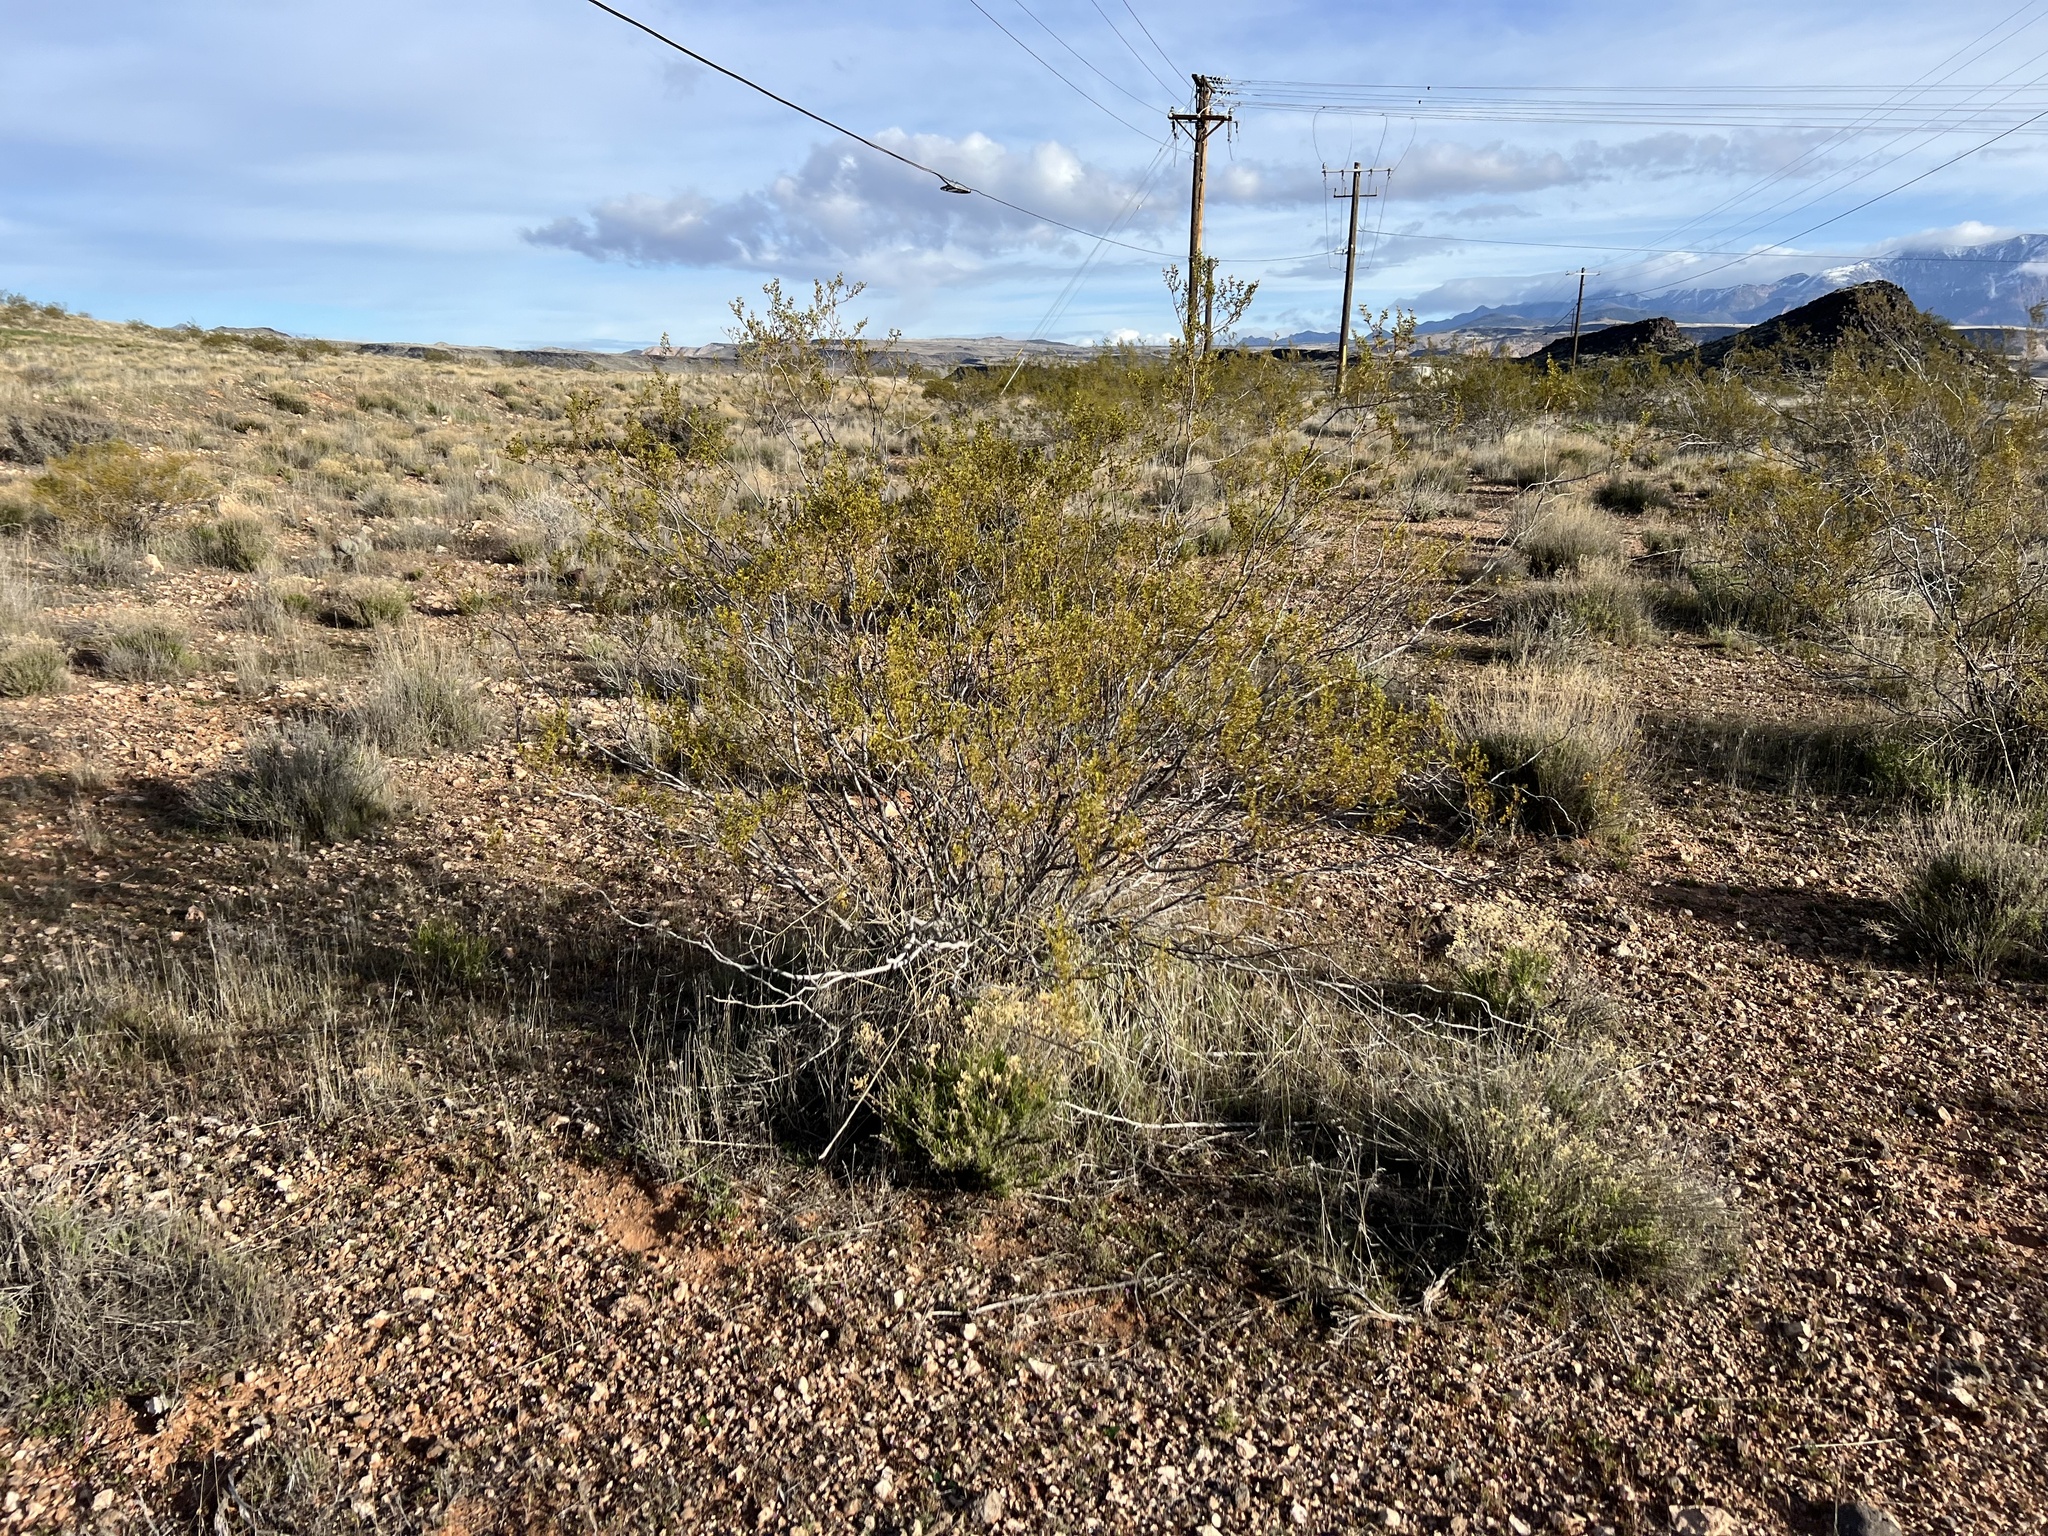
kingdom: Plantae
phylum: Tracheophyta
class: Magnoliopsida
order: Zygophyllales
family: Zygophyllaceae
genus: Larrea
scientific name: Larrea tridentata
